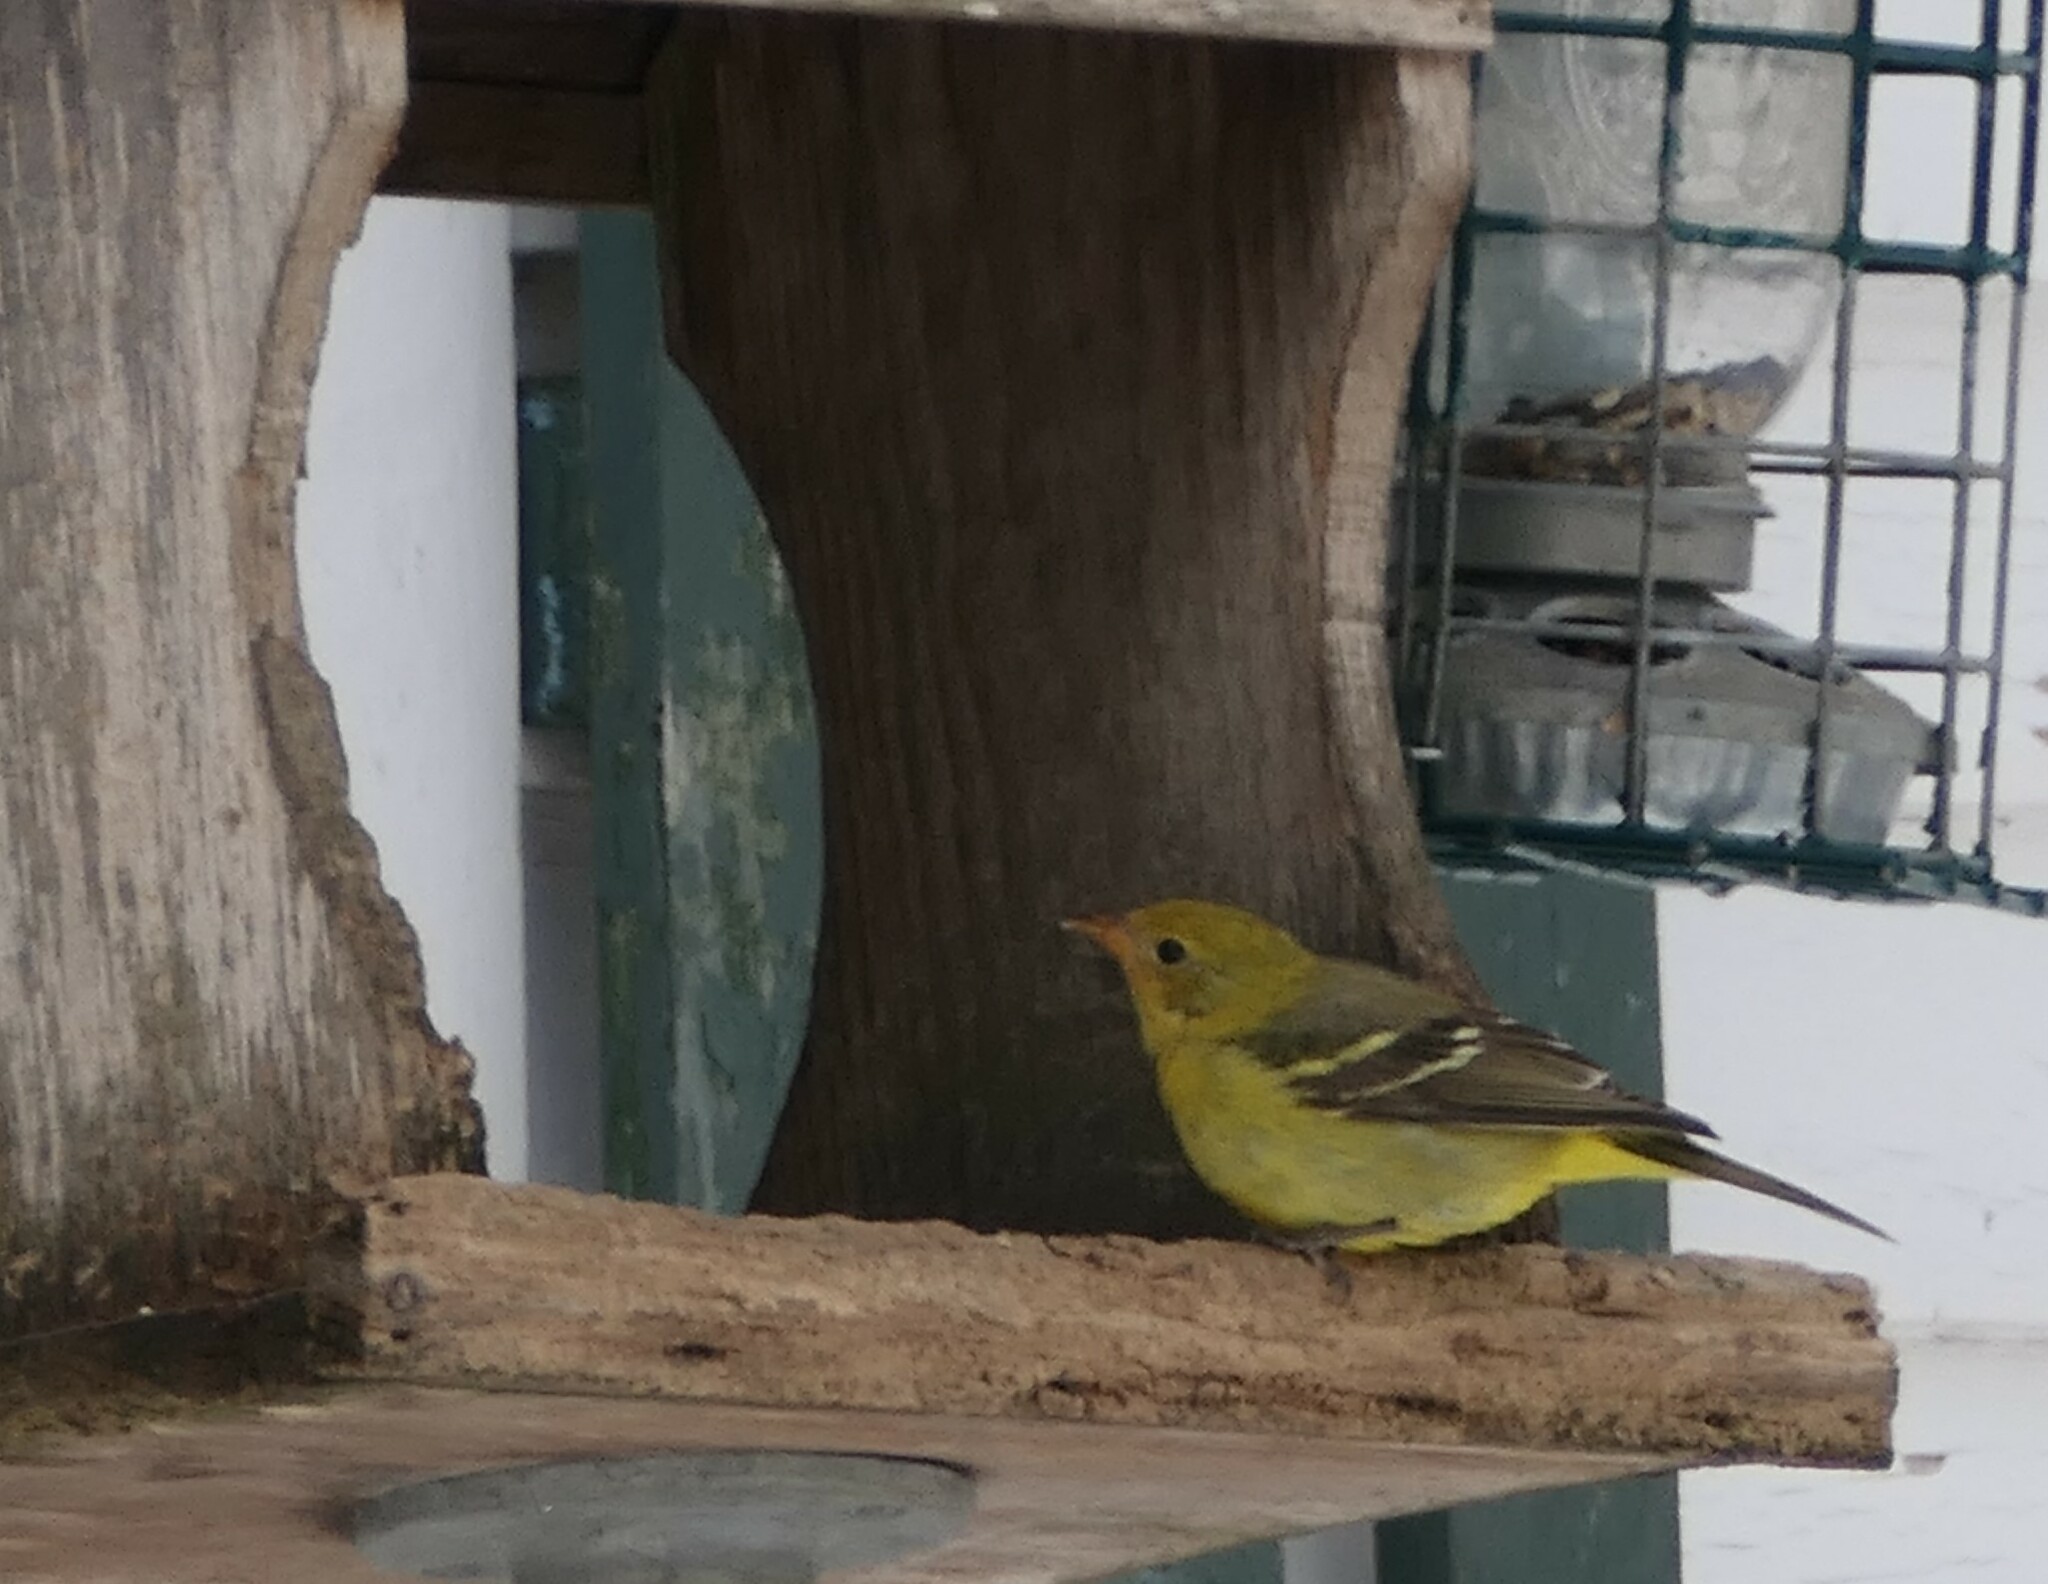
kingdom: Animalia
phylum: Chordata
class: Aves
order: Passeriformes
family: Cardinalidae
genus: Piranga
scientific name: Piranga ludoviciana
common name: Western tanager
